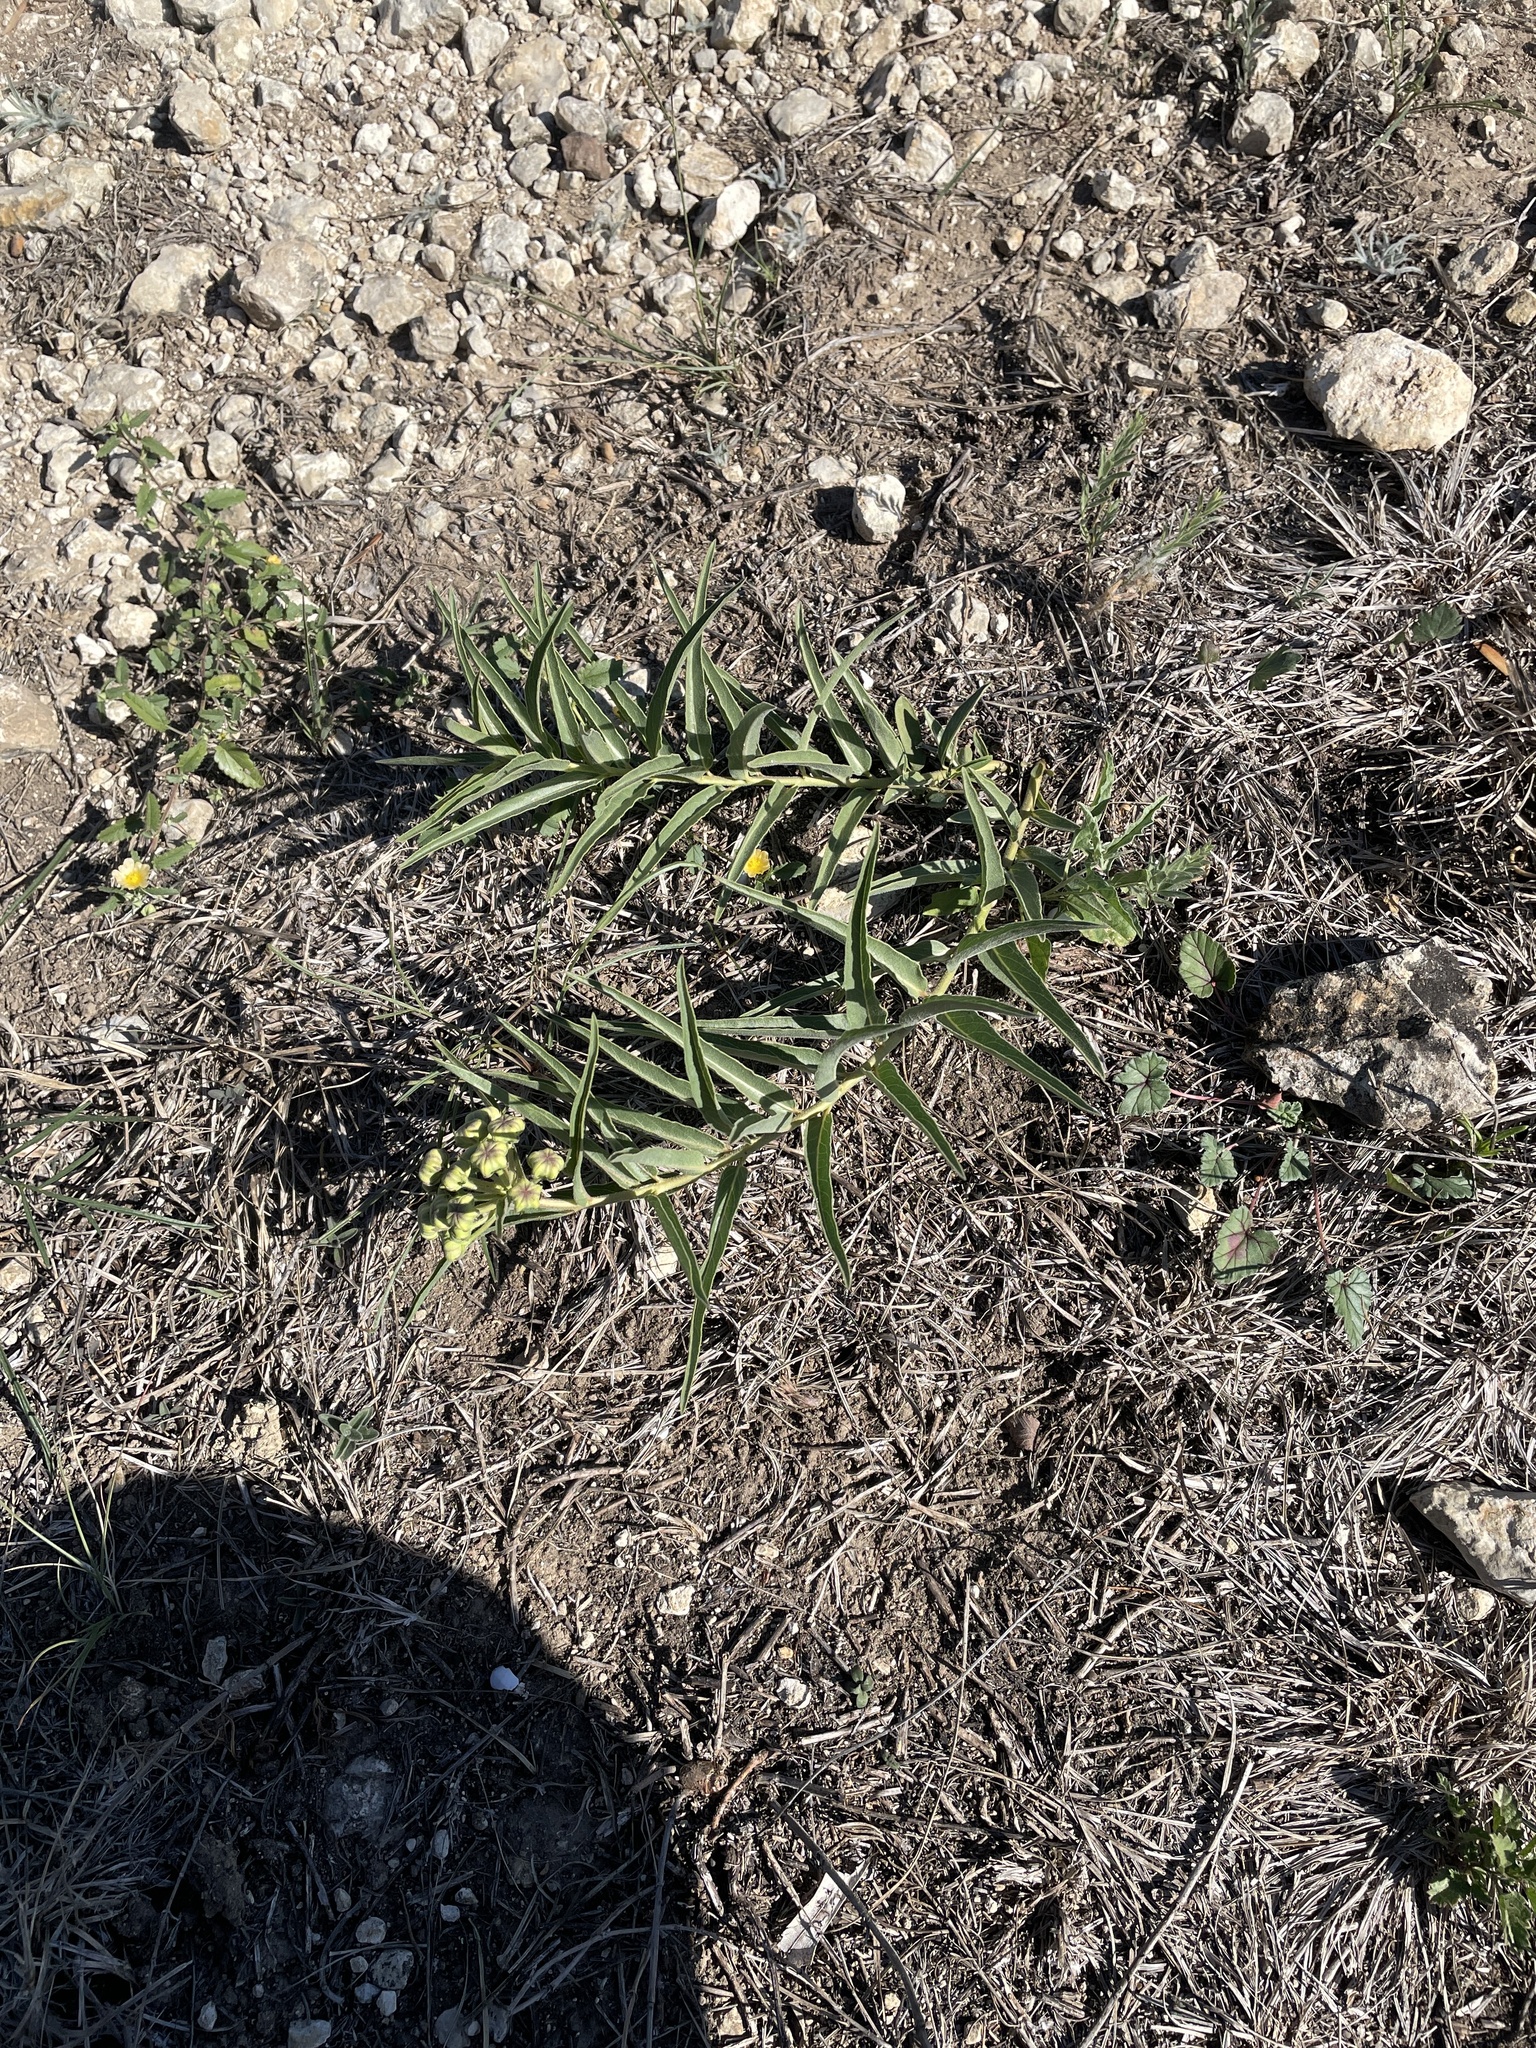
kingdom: Plantae
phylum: Tracheophyta
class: Magnoliopsida
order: Gentianales
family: Apocynaceae
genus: Asclepias
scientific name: Asclepias asperula
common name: Antelope horns
